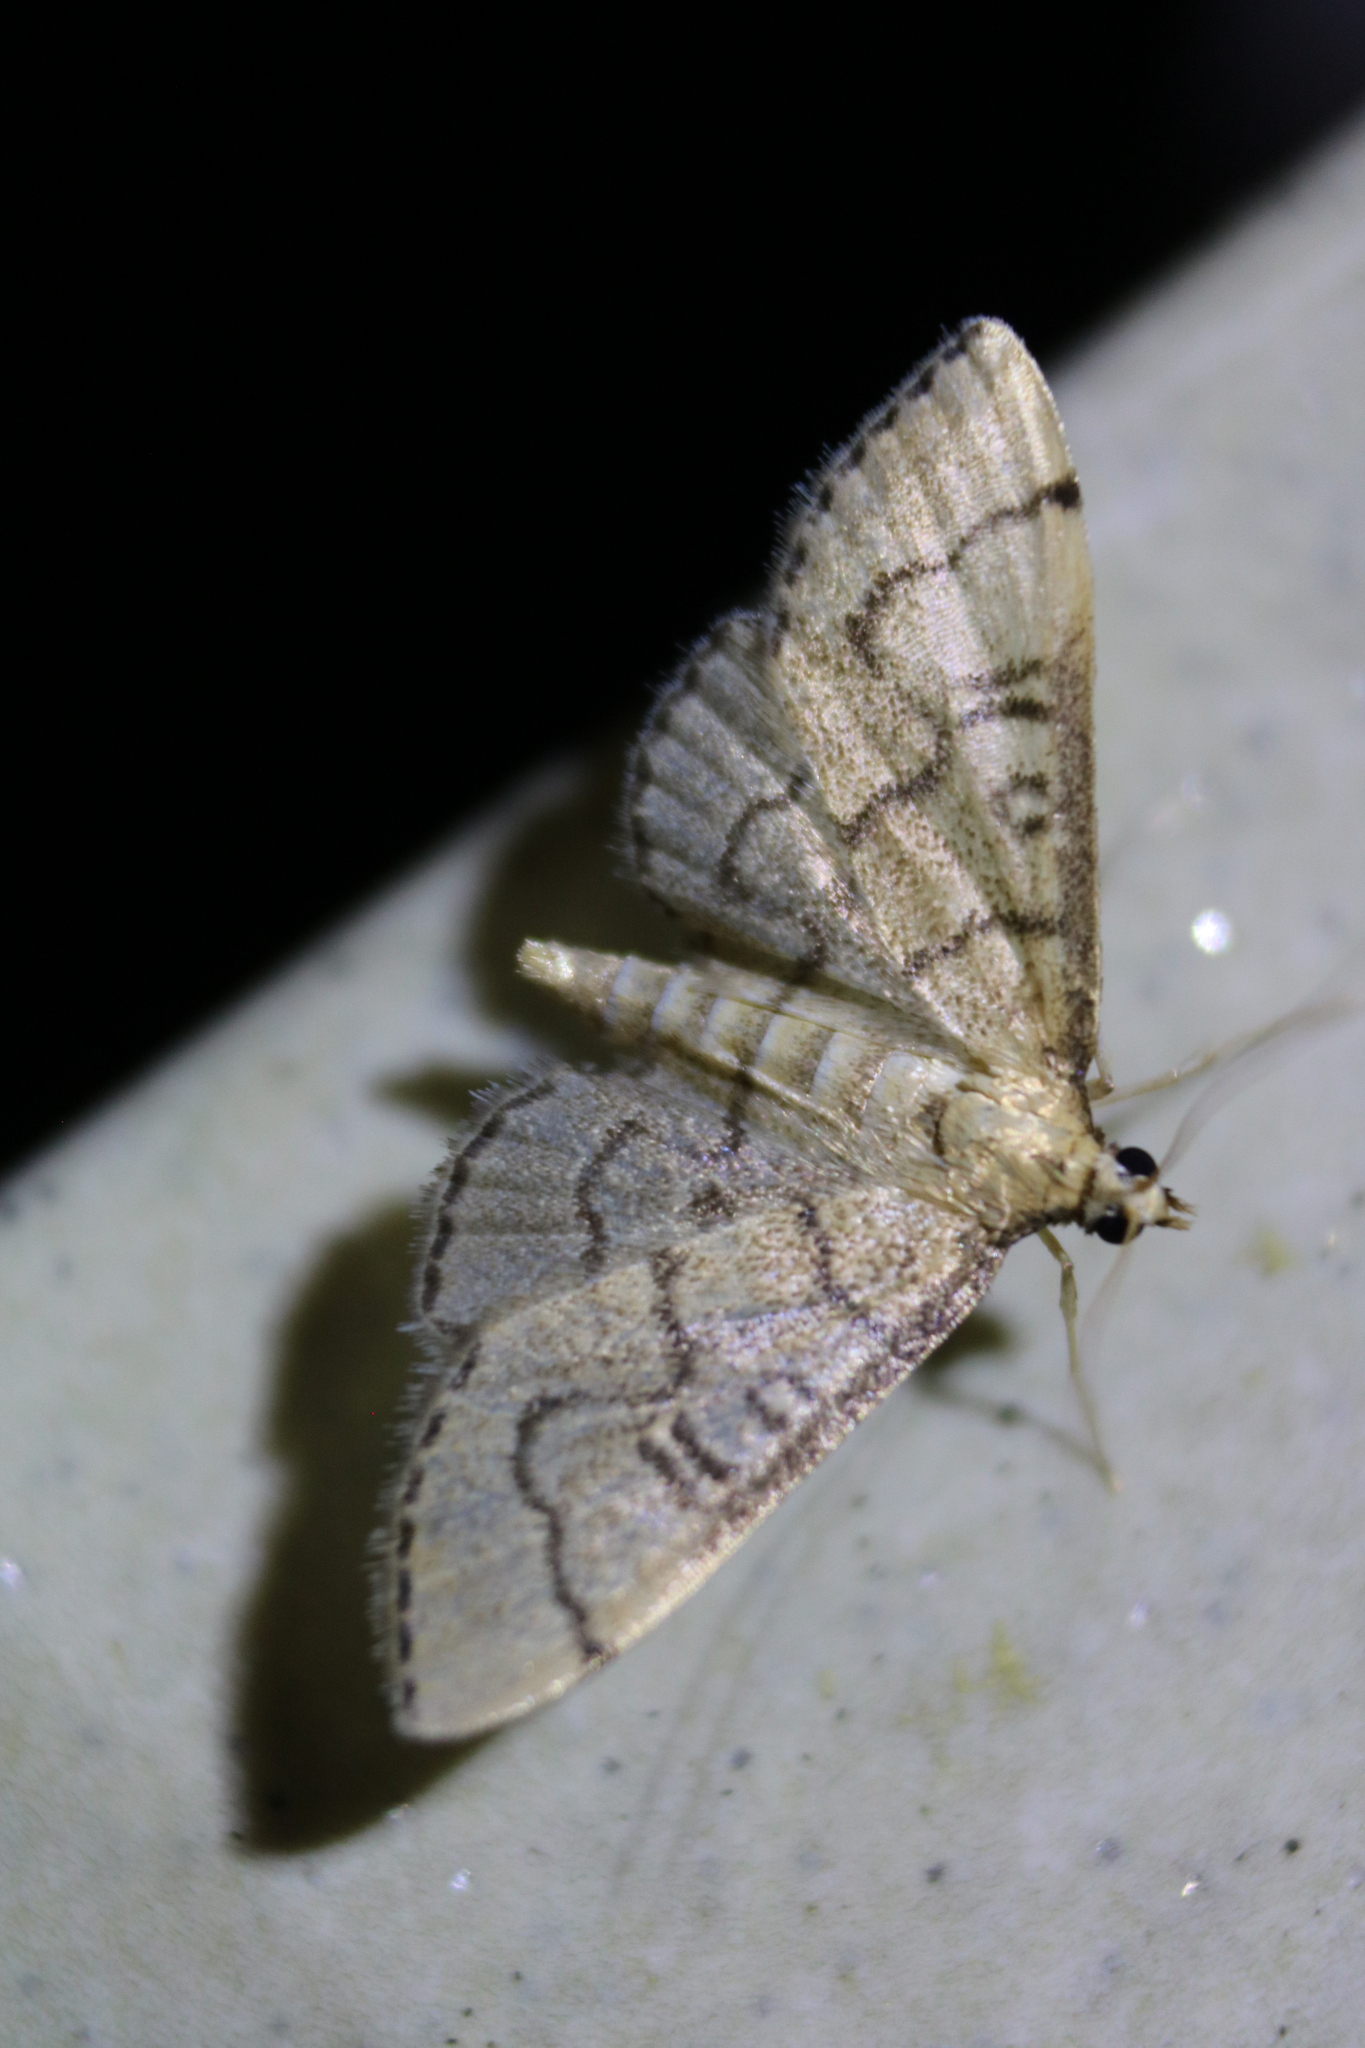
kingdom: Animalia
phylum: Arthropoda
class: Insecta
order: Lepidoptera
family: Crambidae
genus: Lamprosema
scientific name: Lamprosema Blepharomastix ranalis
